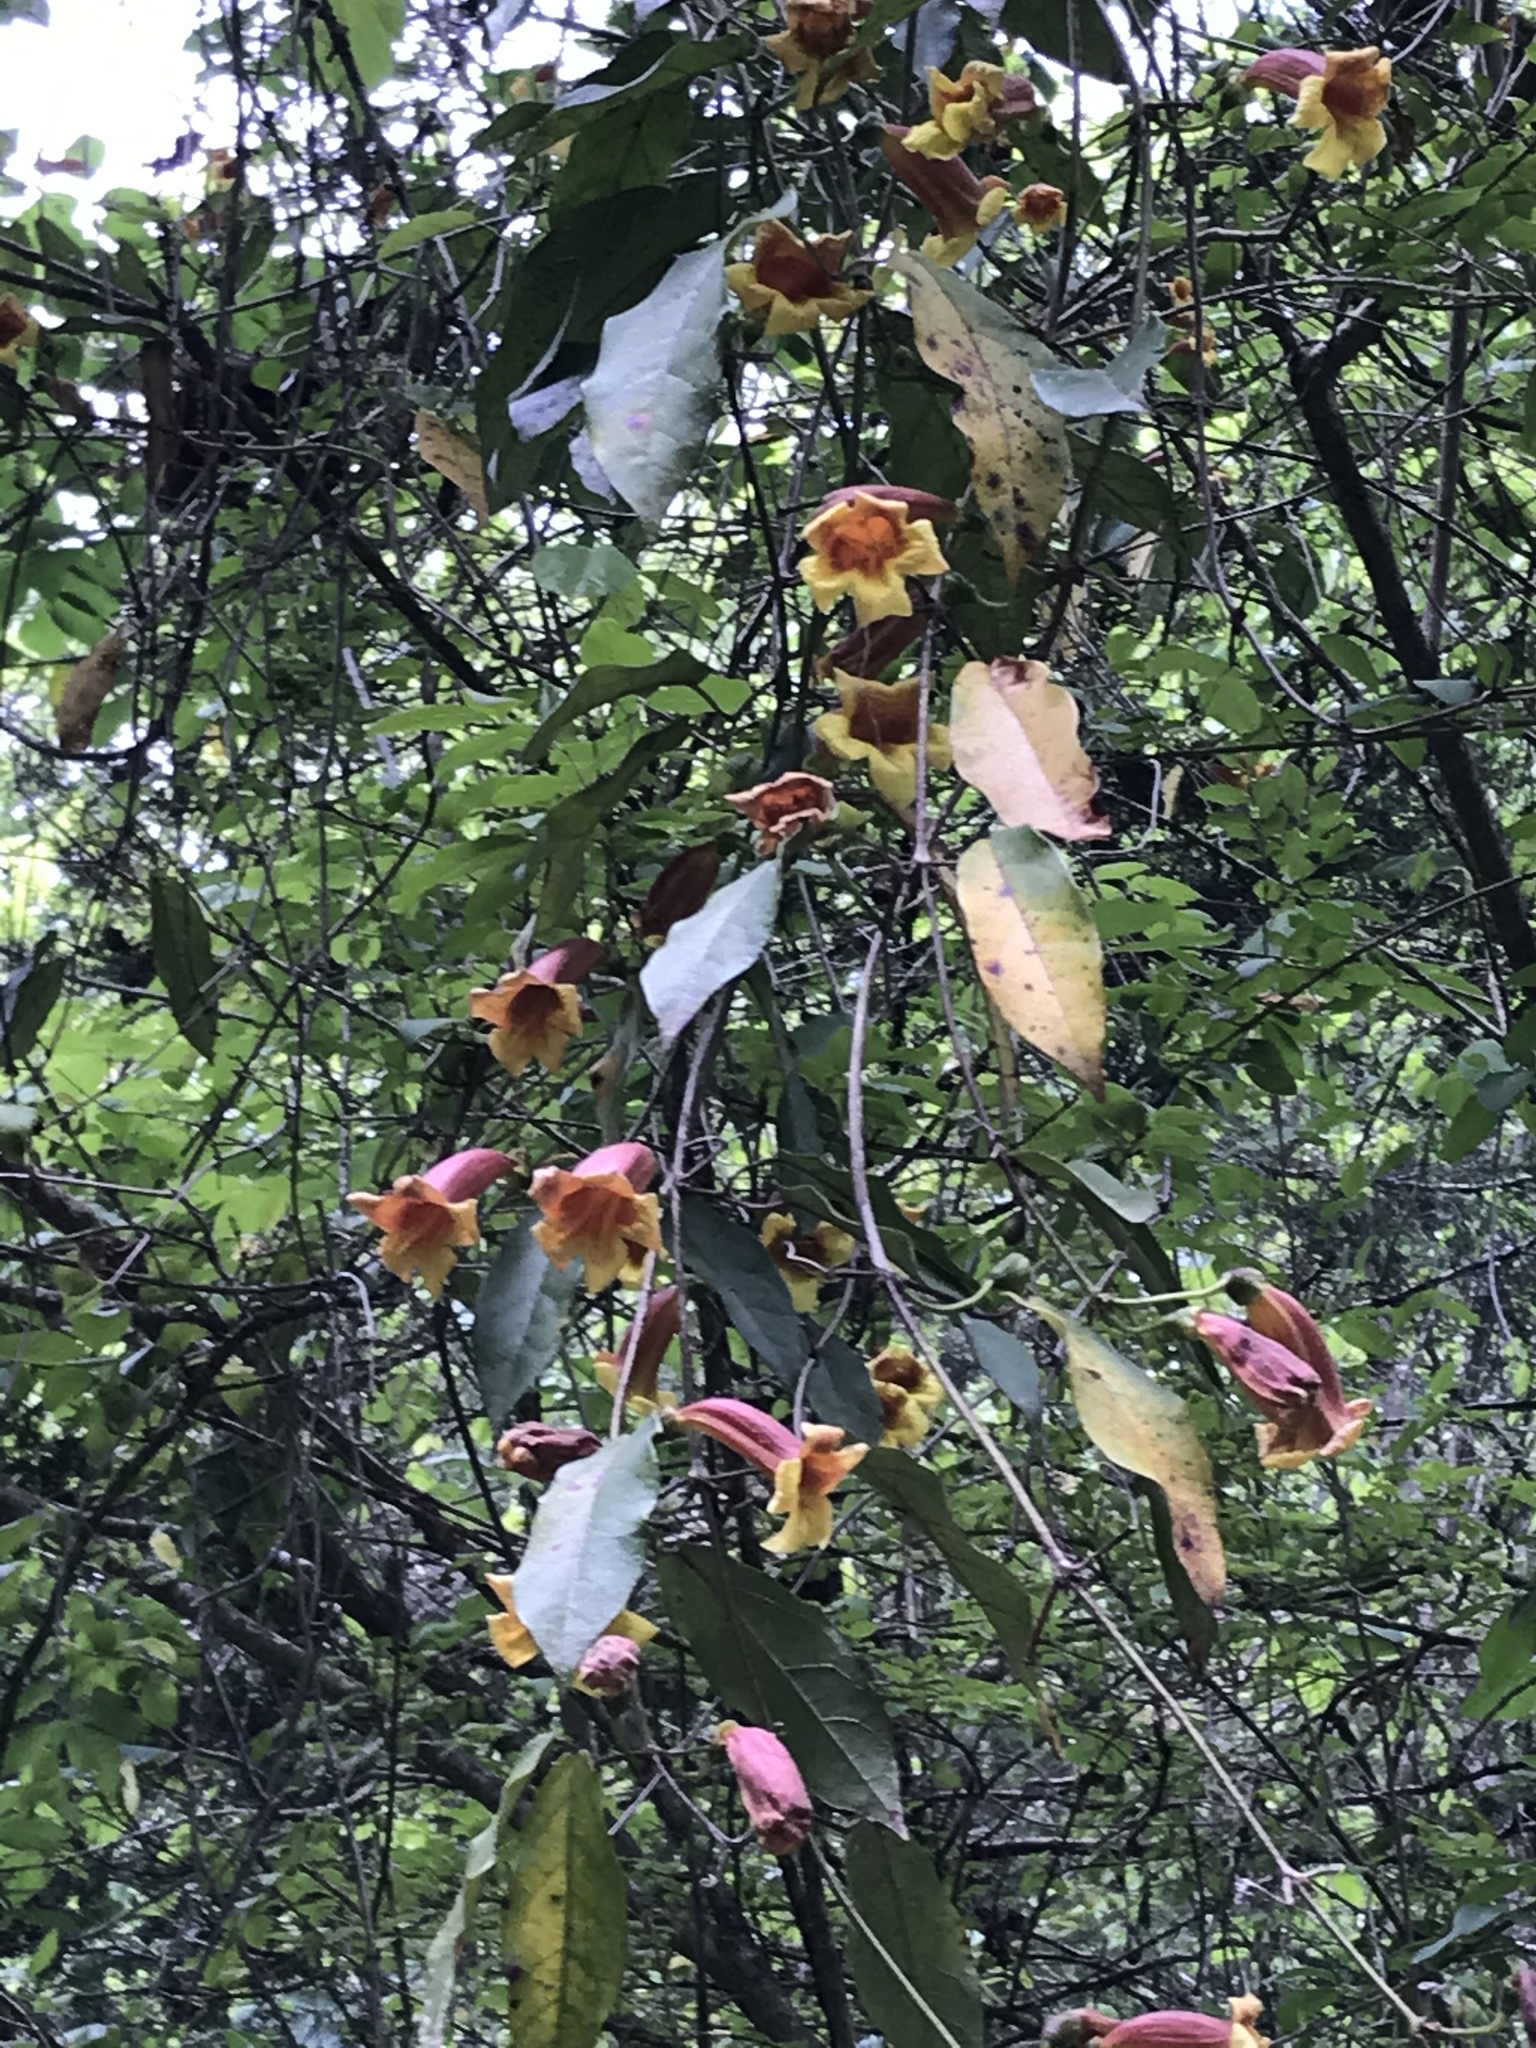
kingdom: Plantae
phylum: Tracheophyta
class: Magnoliopsida
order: Lamiales
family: Bignoniaceae
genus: Bignonia
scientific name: Bignonia capreolata
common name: Crossvine
